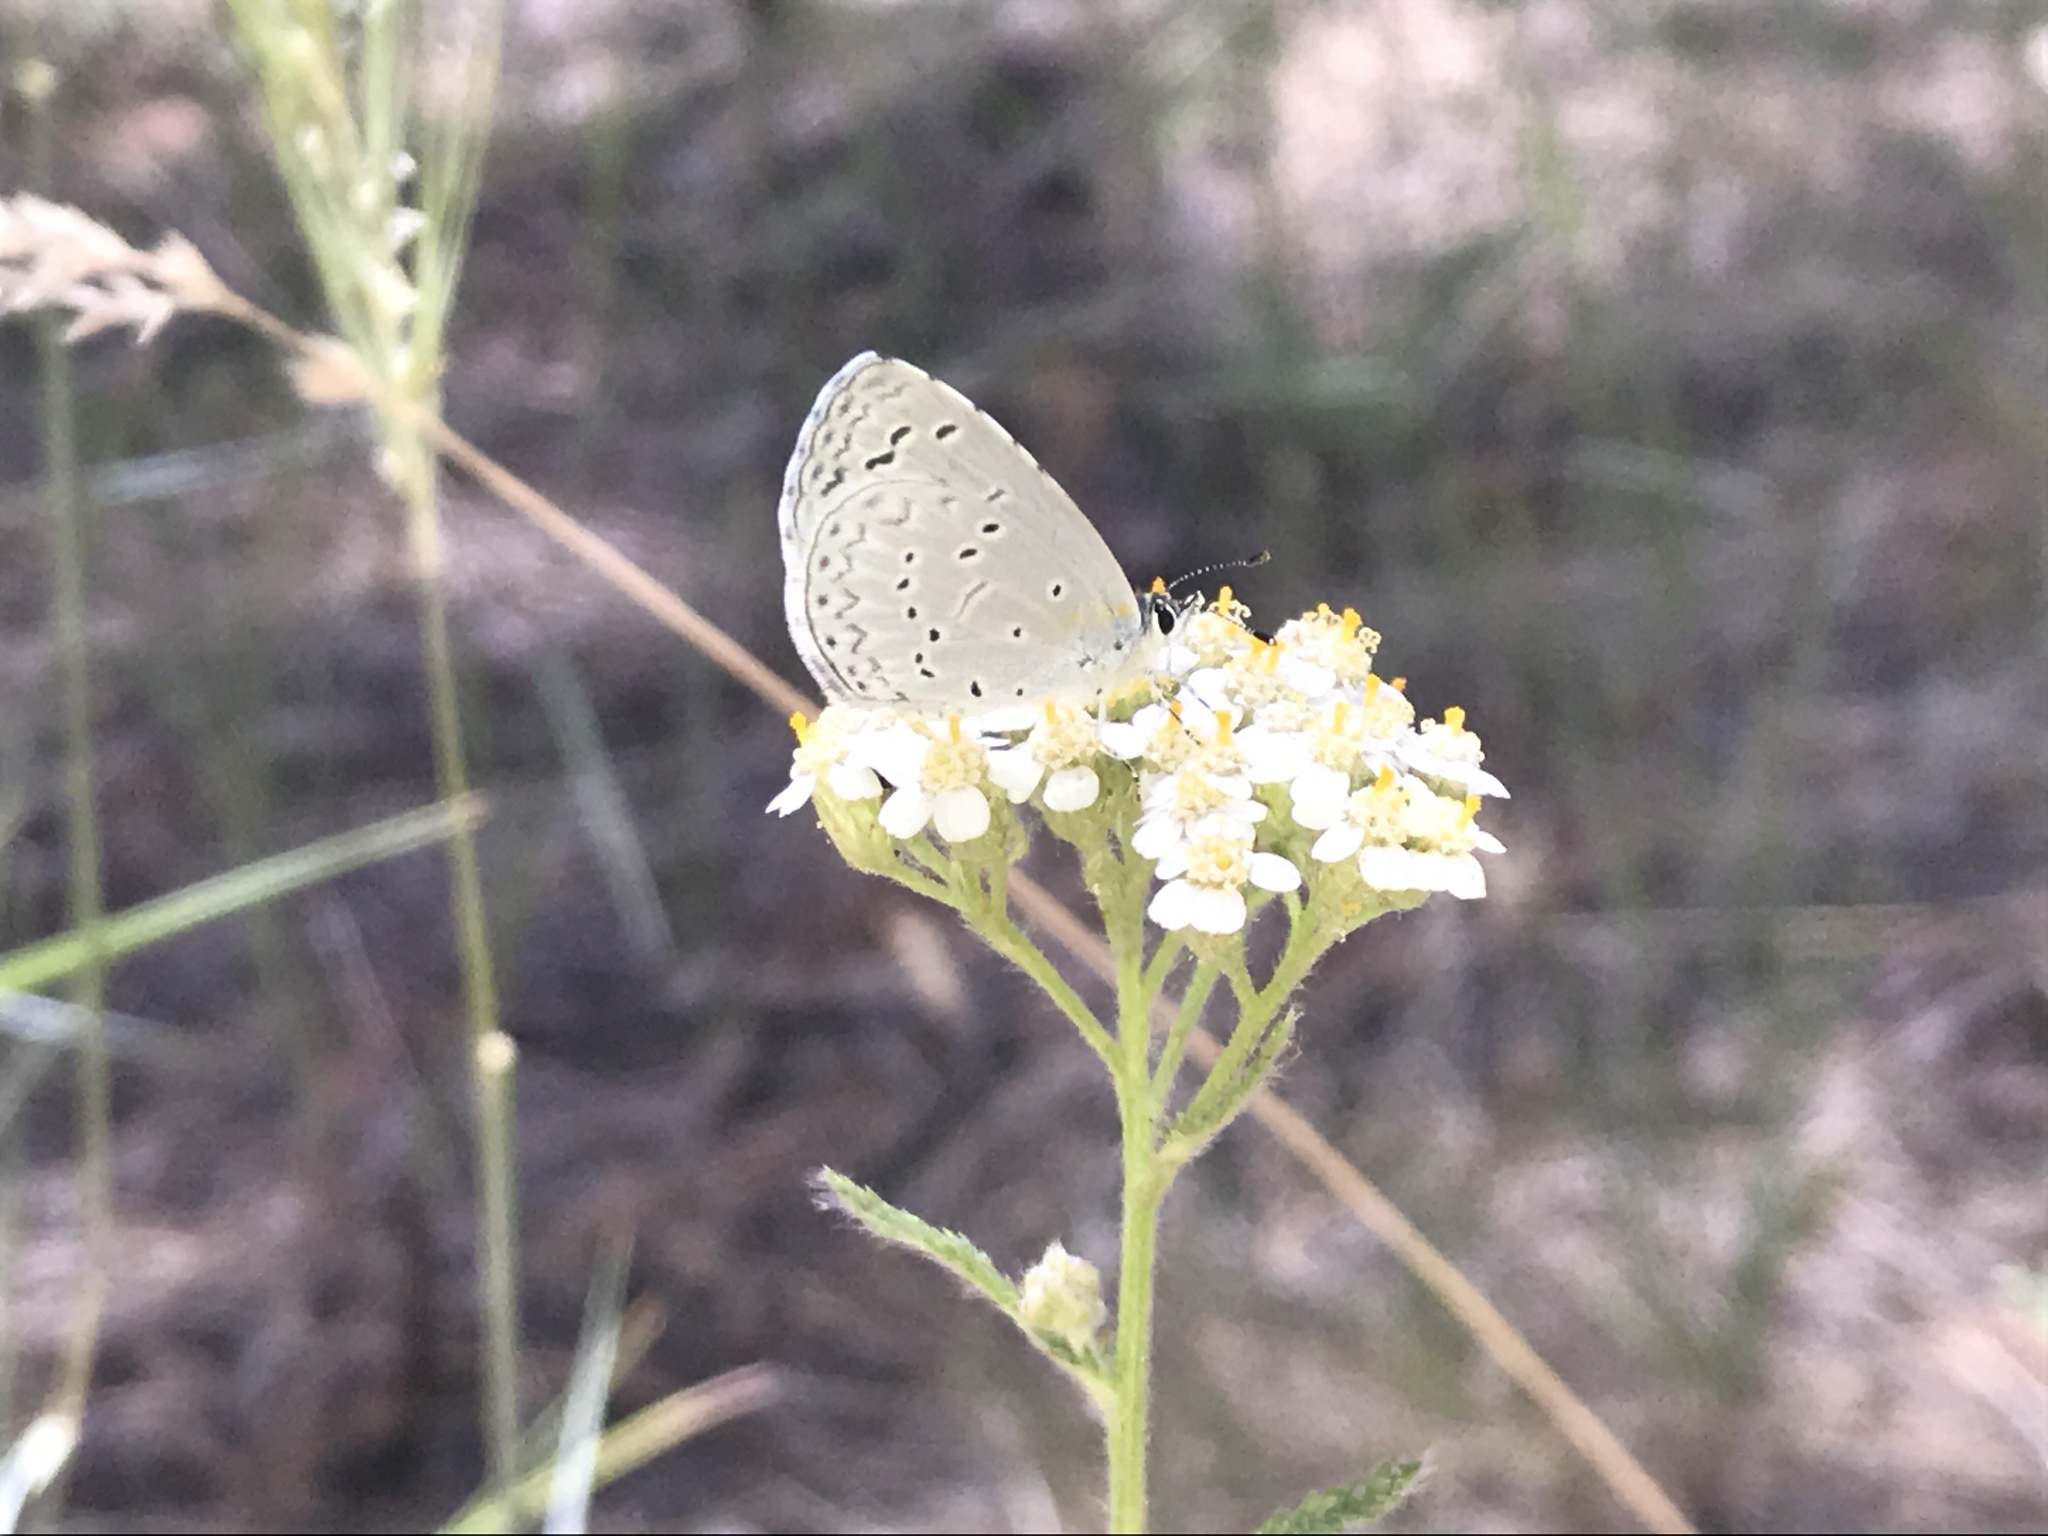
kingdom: Animalia
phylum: Arthropoda
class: Insecta
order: Lepidoptera
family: Lycaenidae
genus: Celastrina
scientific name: Celastrina argiolus
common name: Holly blue
